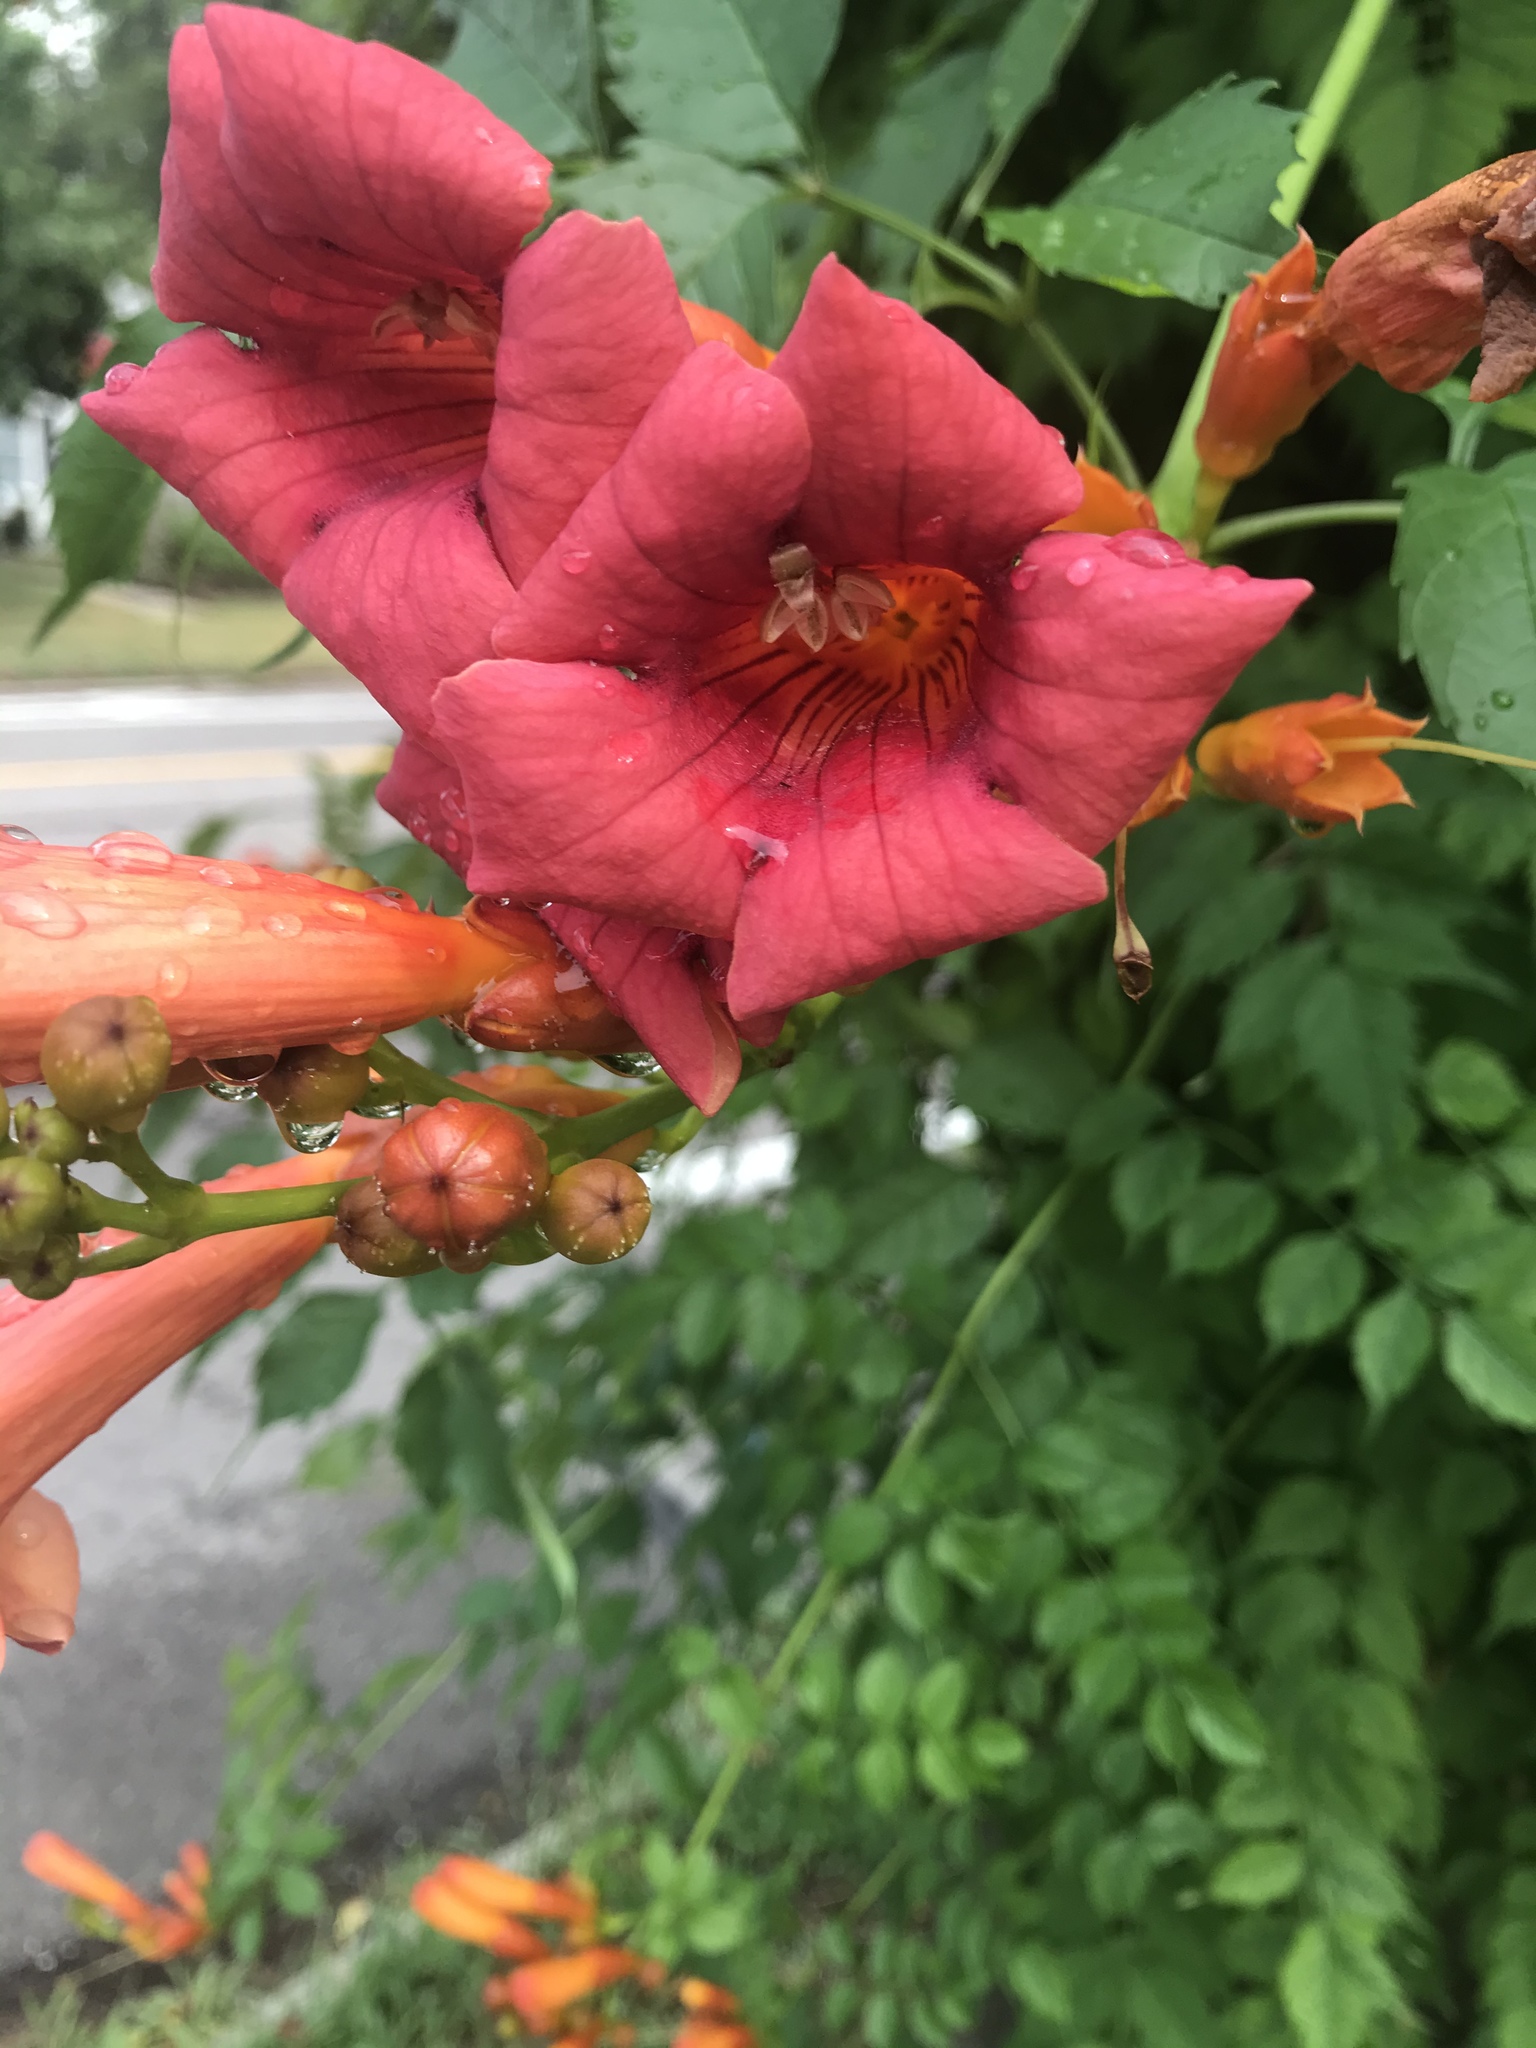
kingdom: Plantae
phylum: Tracheophyta
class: Magnoliopsida
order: Lamiales
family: Bignoniaceae
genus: Campsis
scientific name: Campsis radicans
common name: Trumpet-creeper
